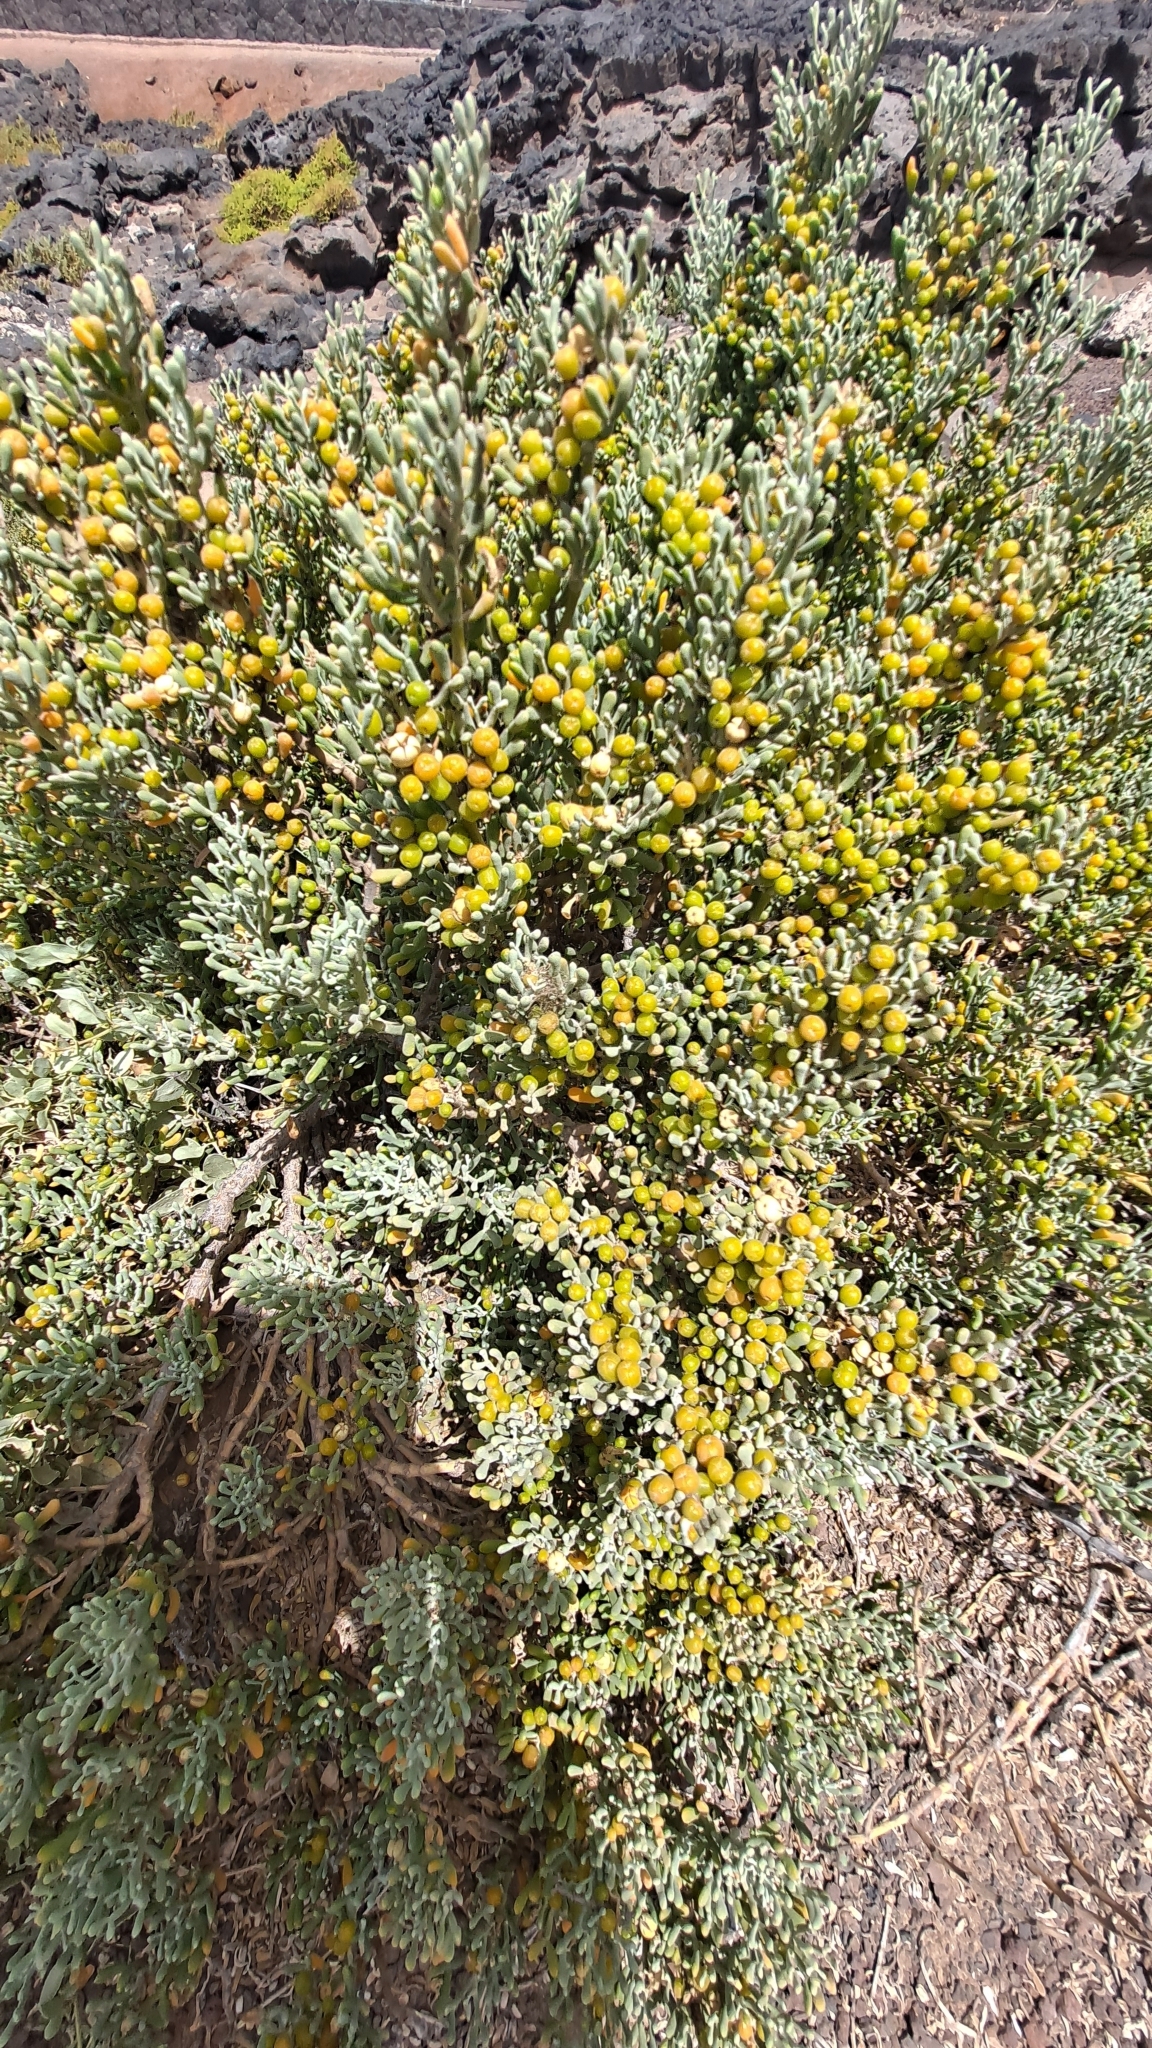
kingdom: Plantae
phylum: Tracheophyta
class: Magnoliopsida
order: Zygophyllales
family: Zygophyllaceae
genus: Tetraena
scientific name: Tetraena fontanesii
